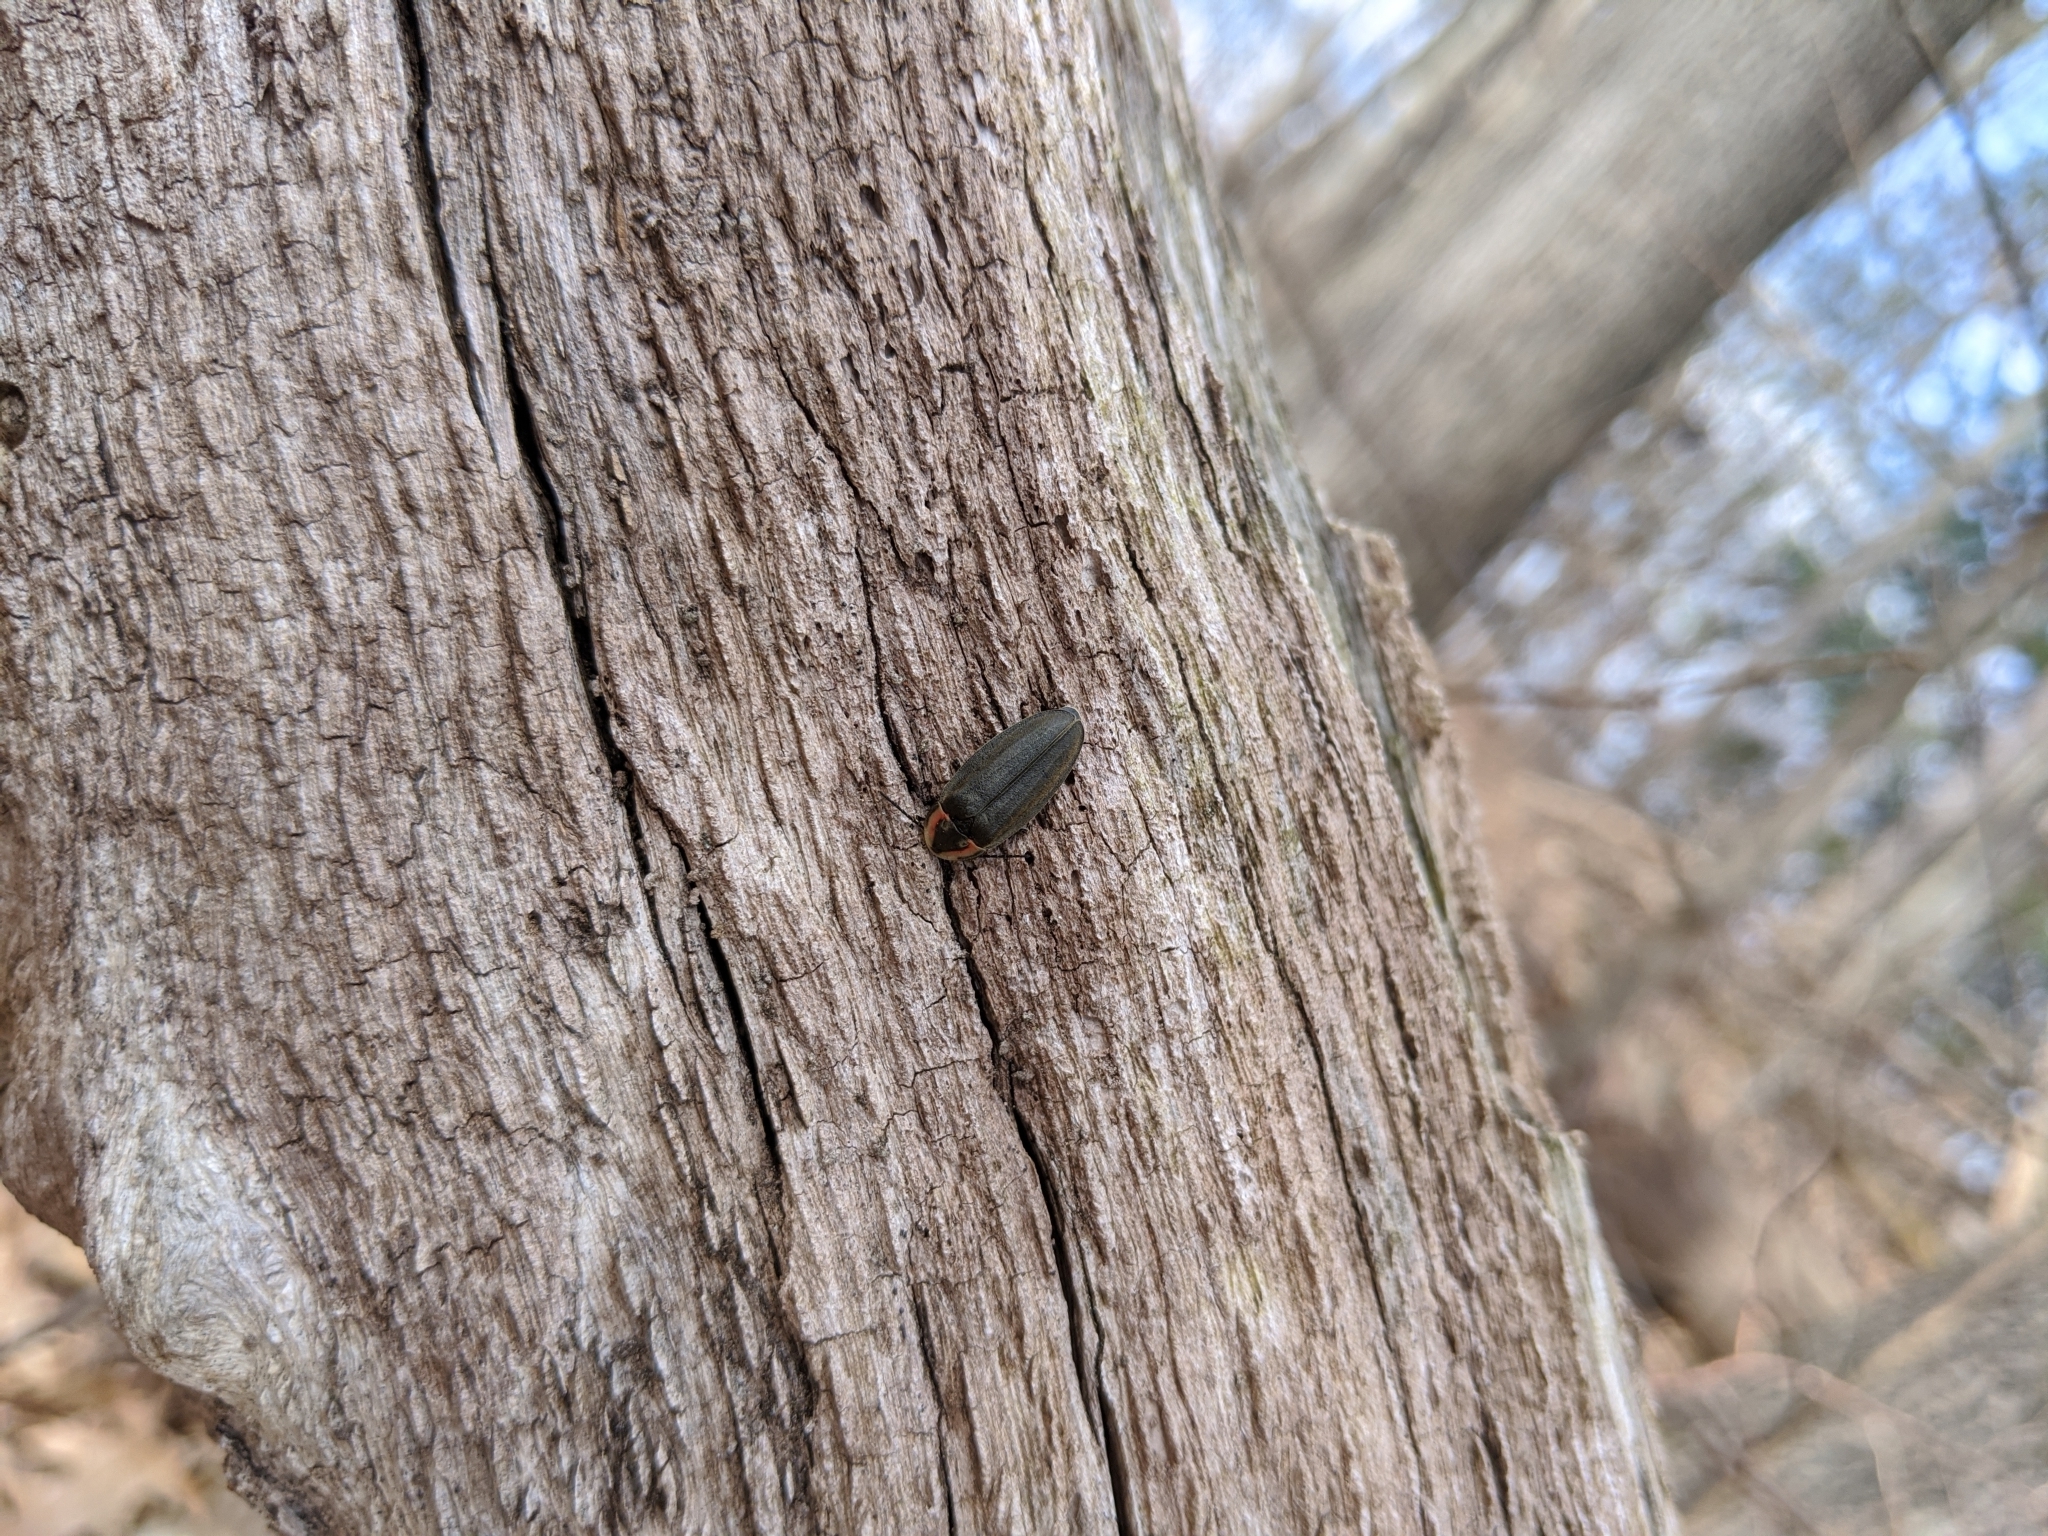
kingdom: Animalia
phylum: Arthropoda
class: Insecta
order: Coleoptera
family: Lampyridae
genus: Photinus
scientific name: Photinus corrusca
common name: Winter firefly
